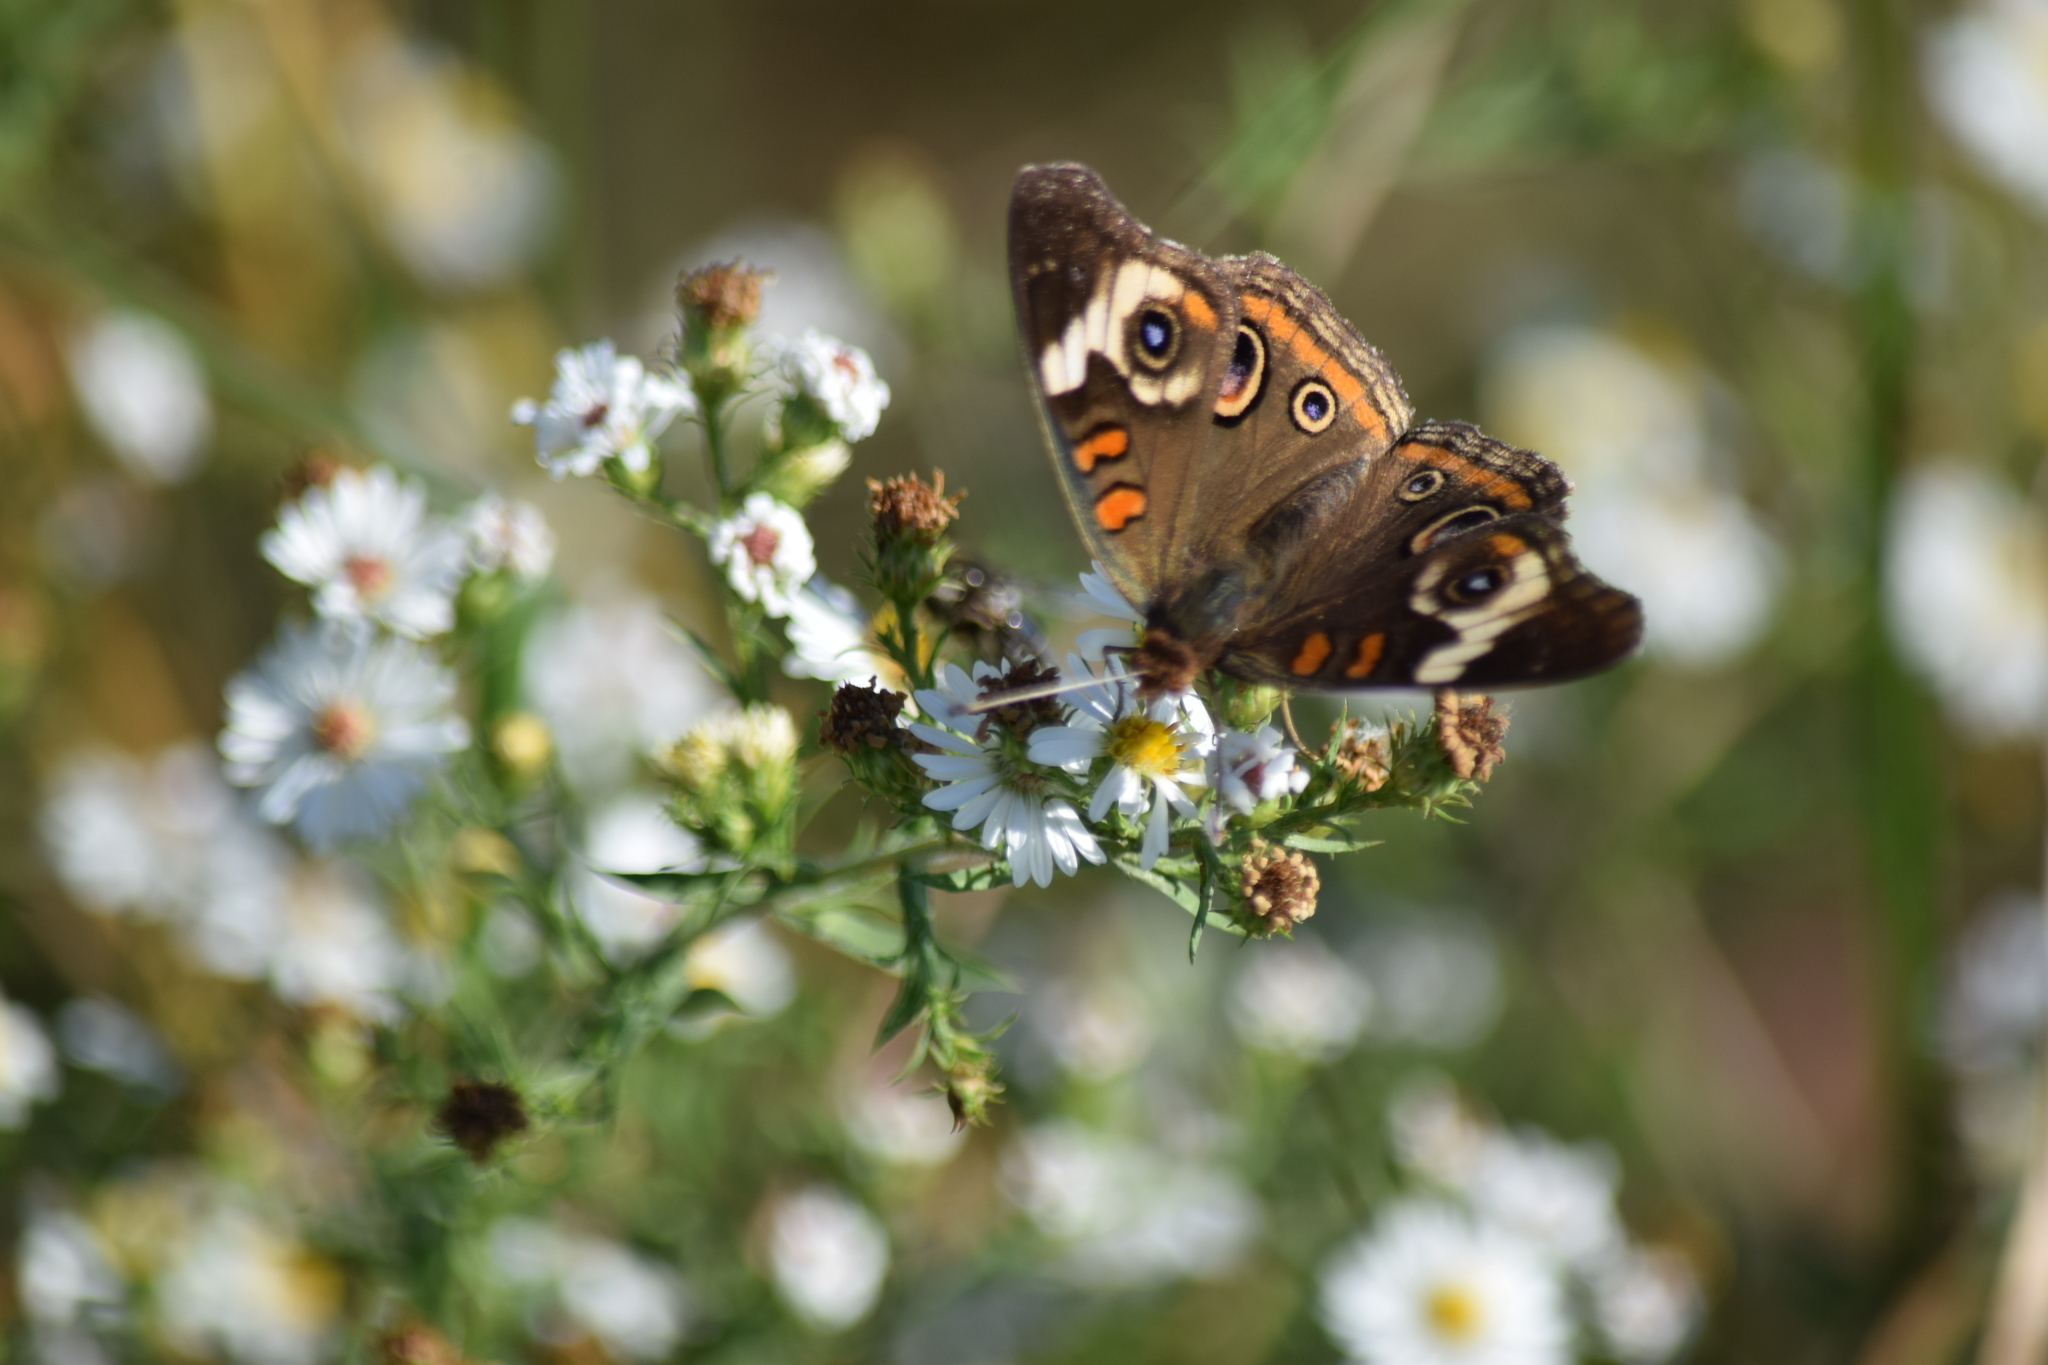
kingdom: Animalia
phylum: Arthropoda
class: Insecta
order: Lepidoptera
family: Nymphalidae
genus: Junonia
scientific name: Junonia coenia
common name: Common buckeye
